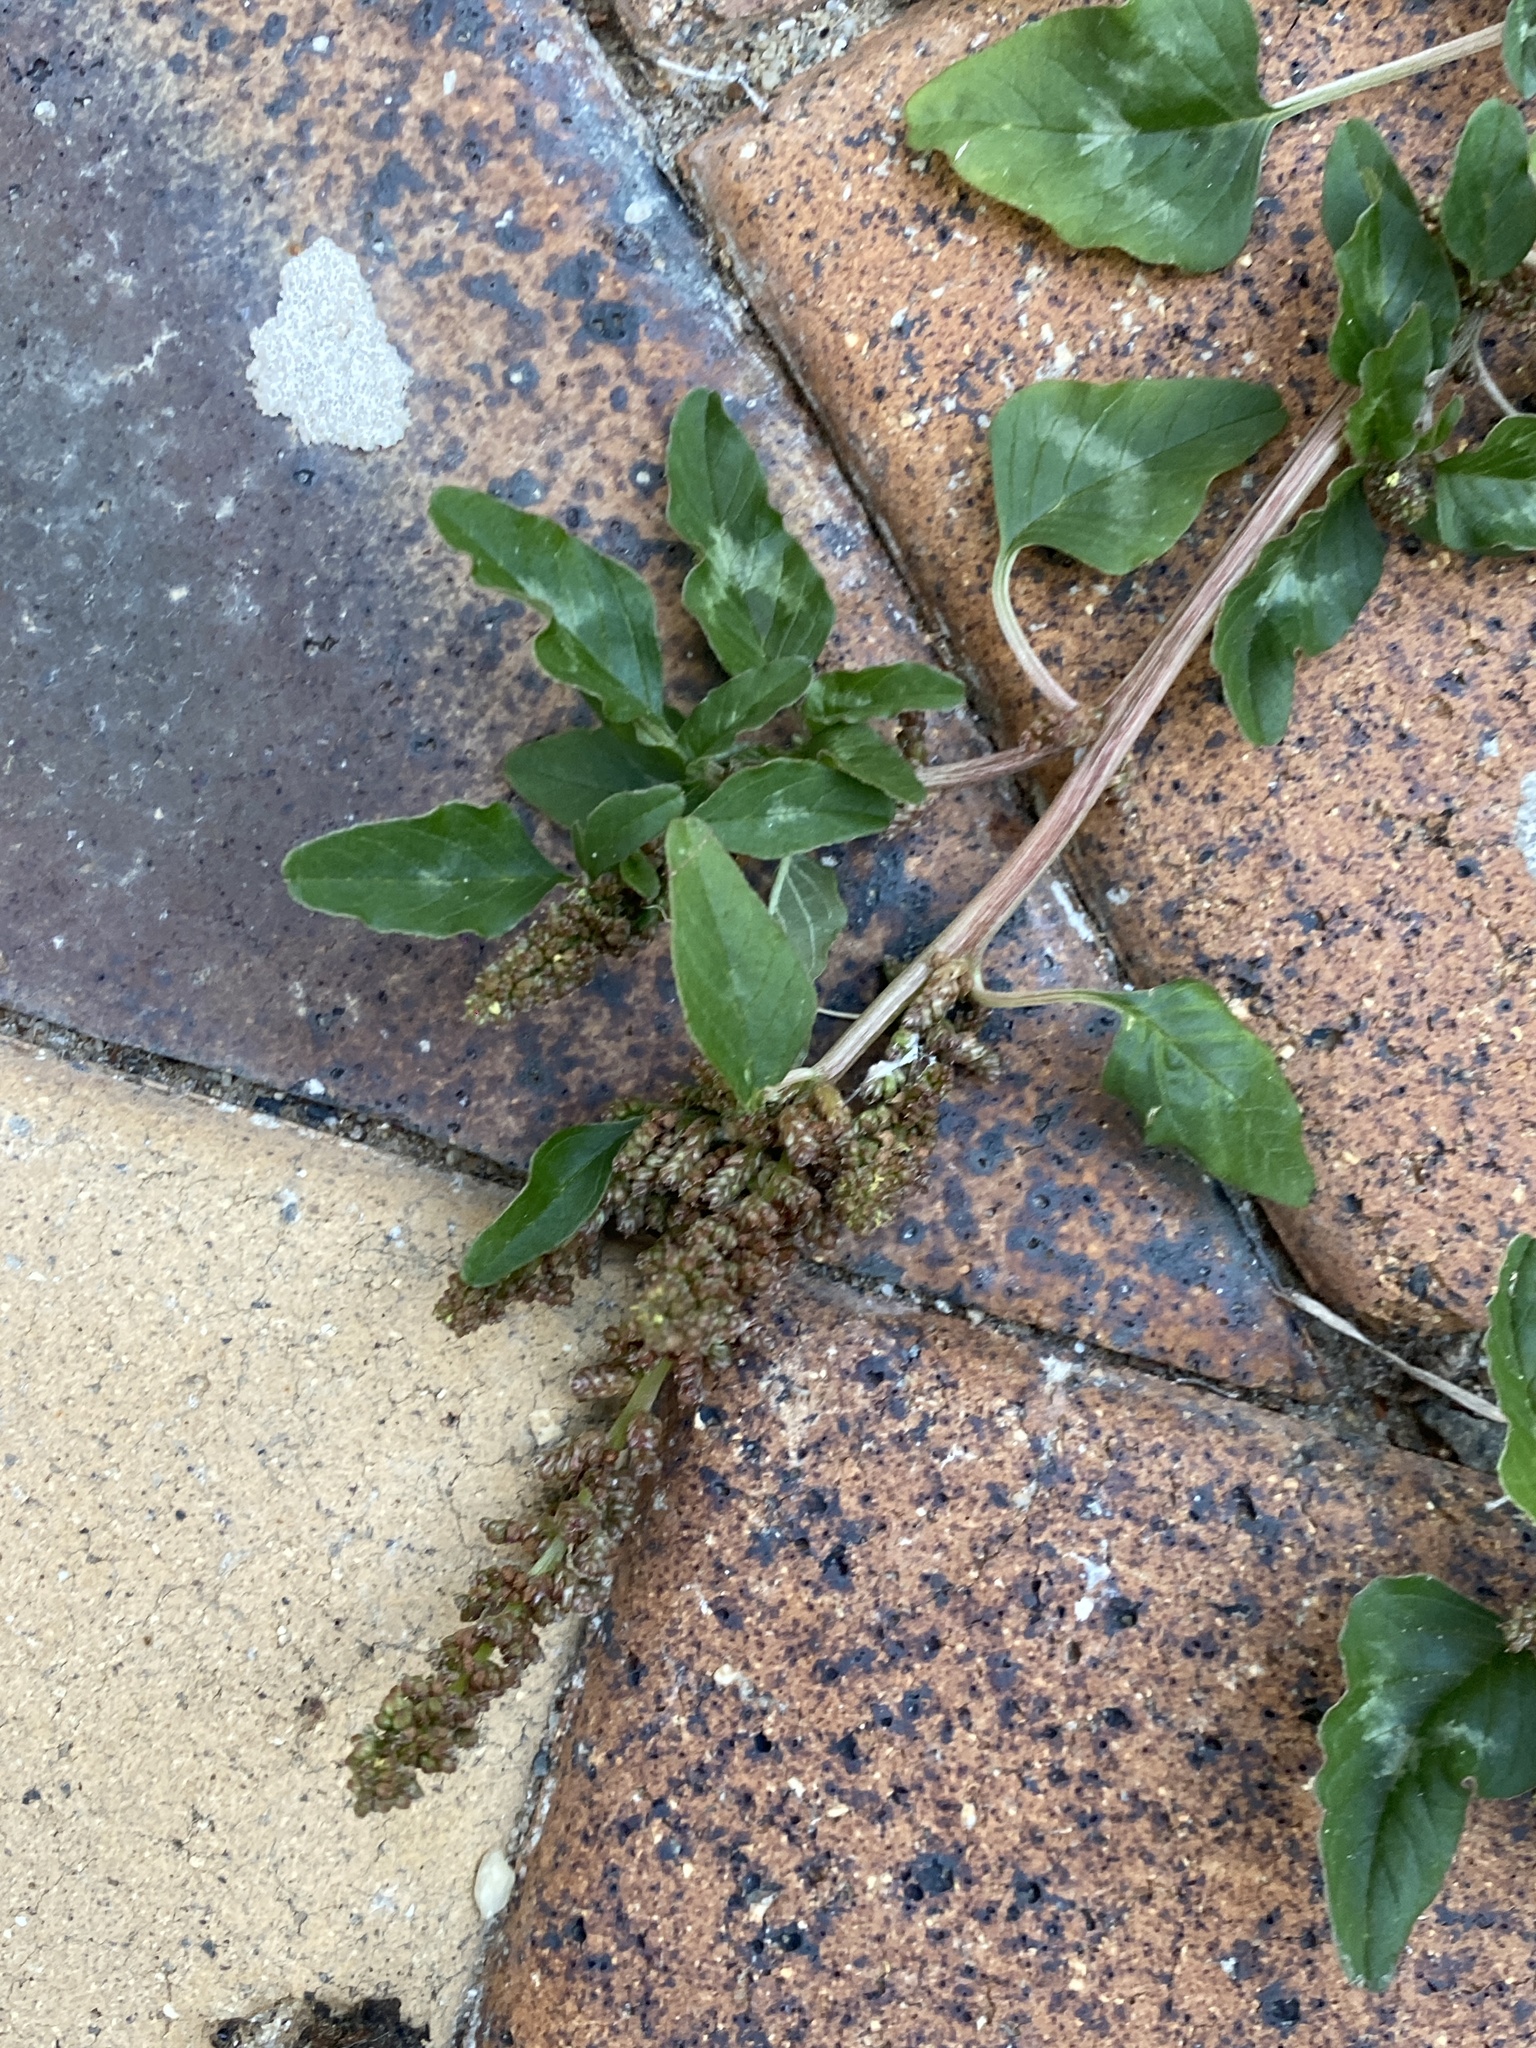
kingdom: Plantae
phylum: Tracheophyta
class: Magnoliopsida
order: Caryophyllales
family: Amaranthaceae
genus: Amaranthus
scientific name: Amaranthus viridis
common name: Slender amaranth
